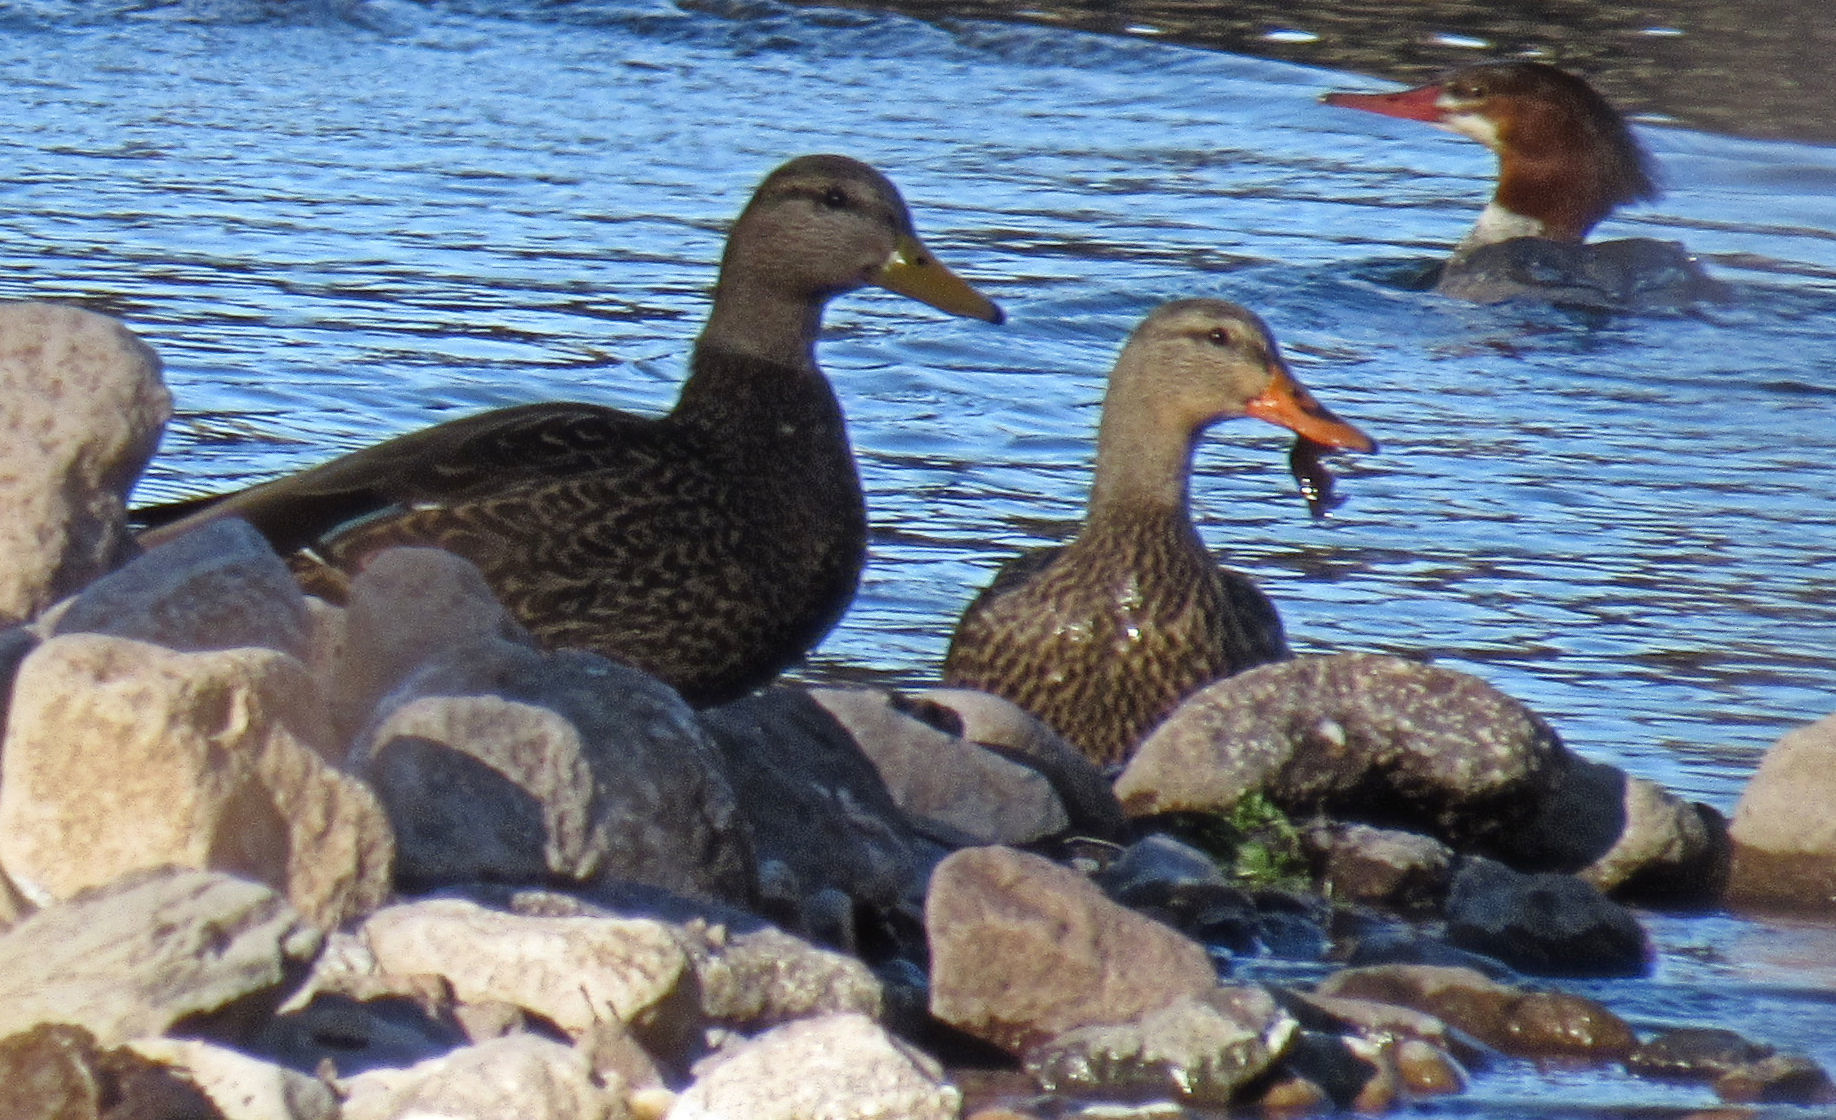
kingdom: Animalia
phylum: Chordata
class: Aves
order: Anseriformes
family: Anatidae
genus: Anas
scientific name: Anas diazi
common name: Mexican duck
